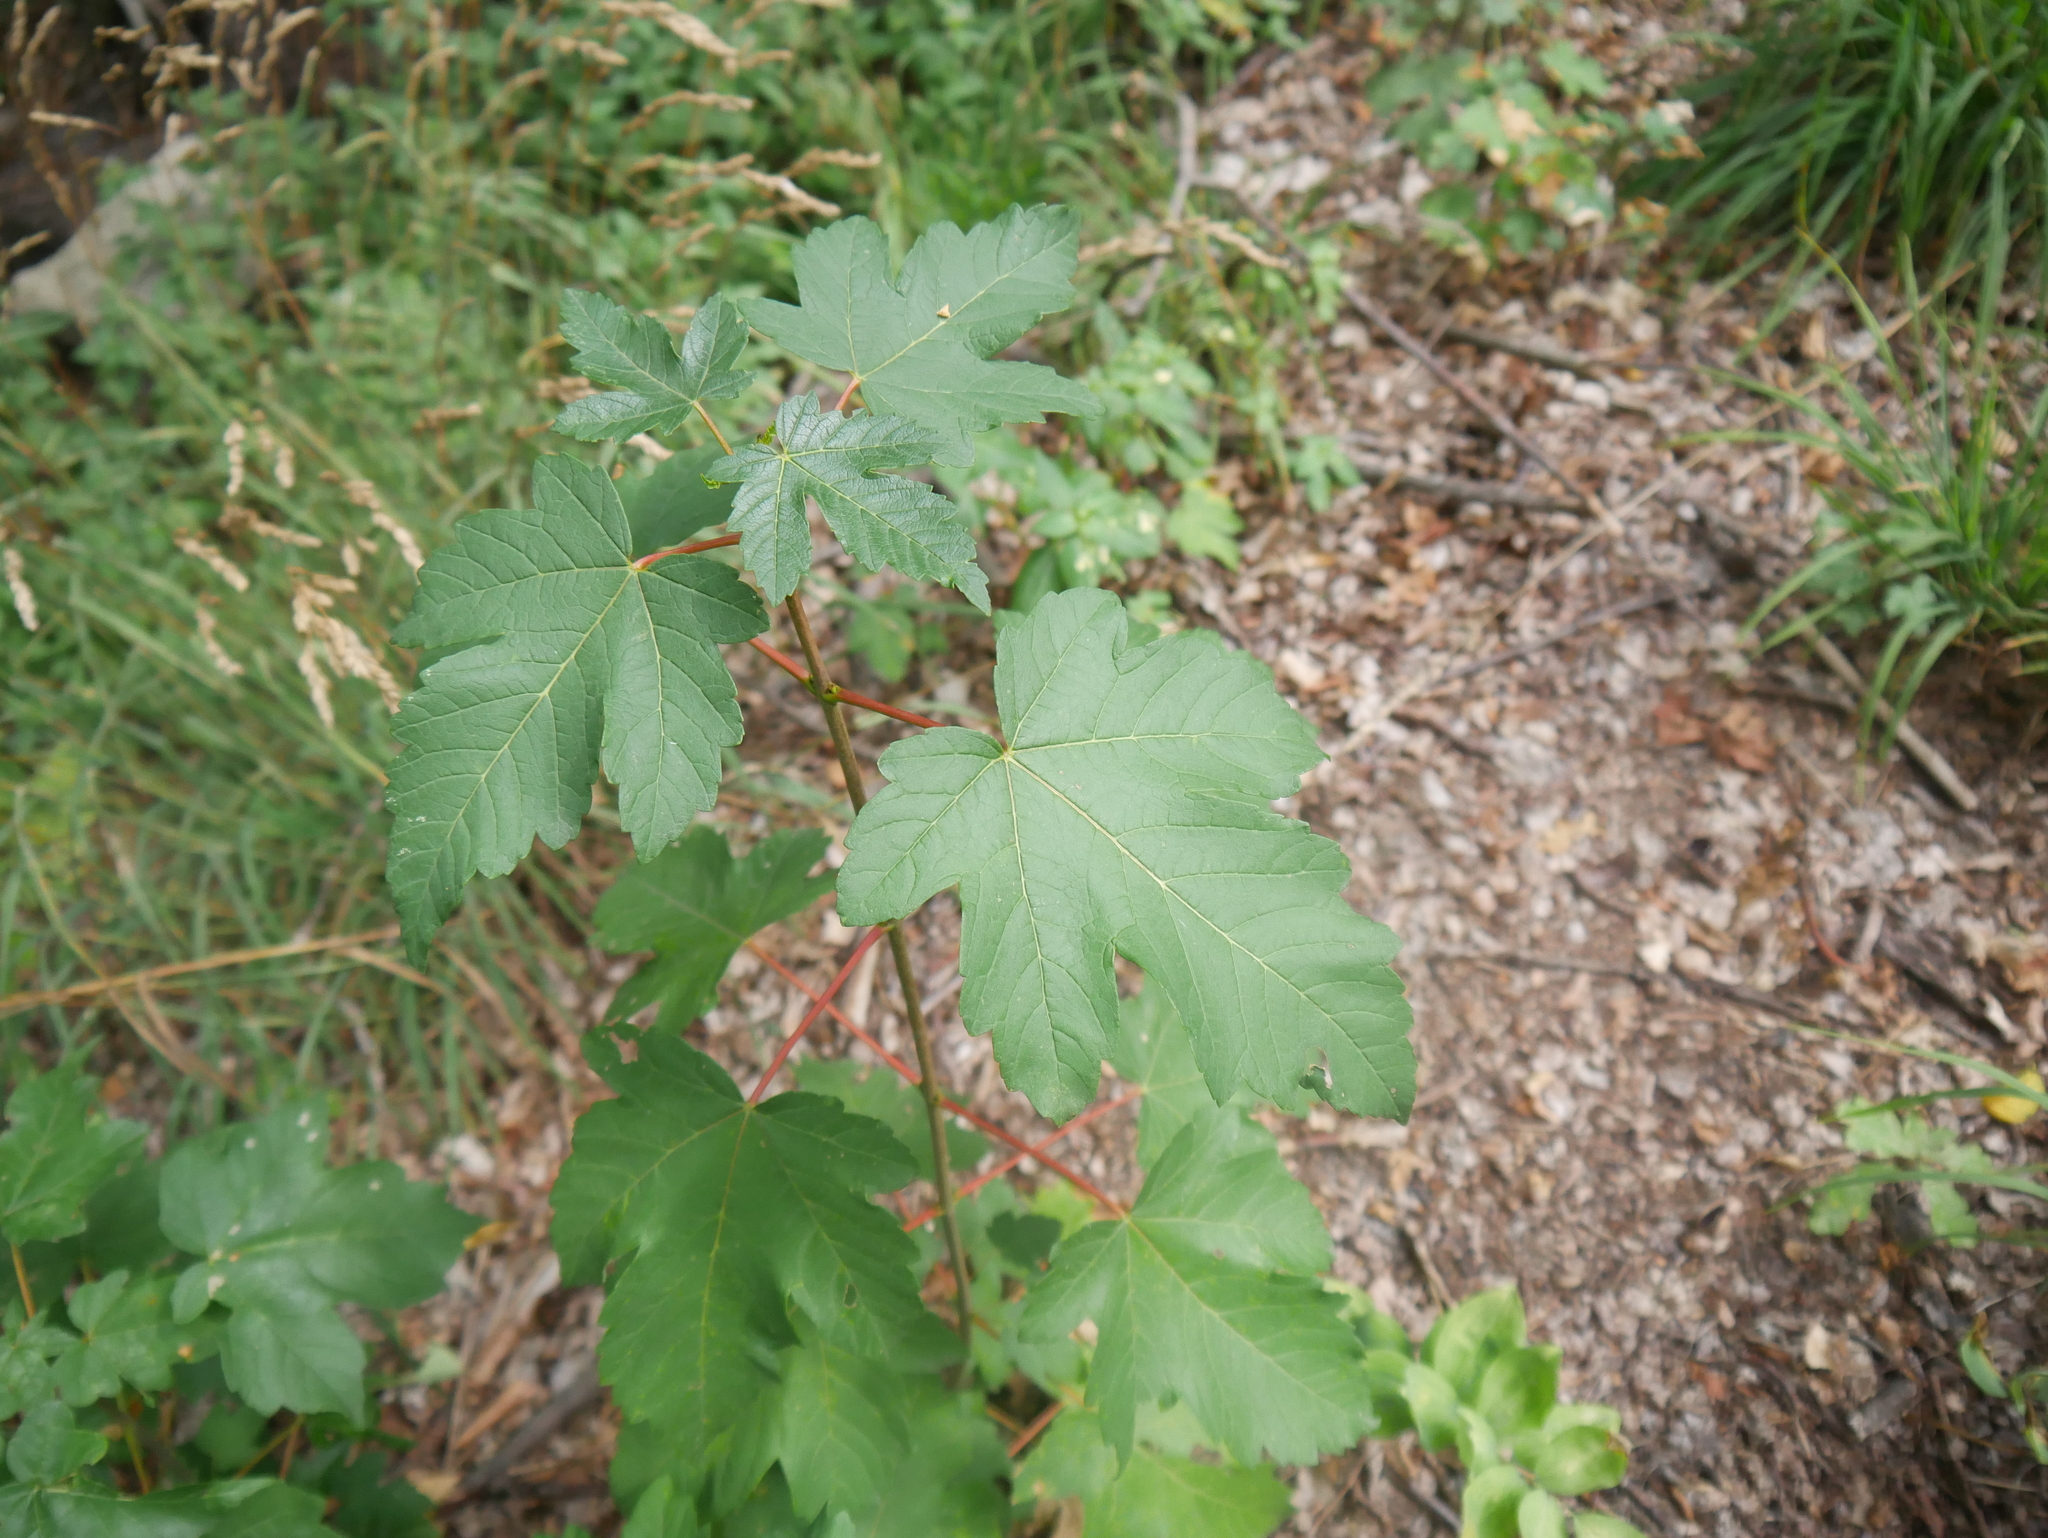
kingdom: Plantae
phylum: Tracheophyta
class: Magnoliopsida
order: Sapindales
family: Sapindaceae
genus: Acer
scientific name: Acer pseudoplatanus
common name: Sycamore
